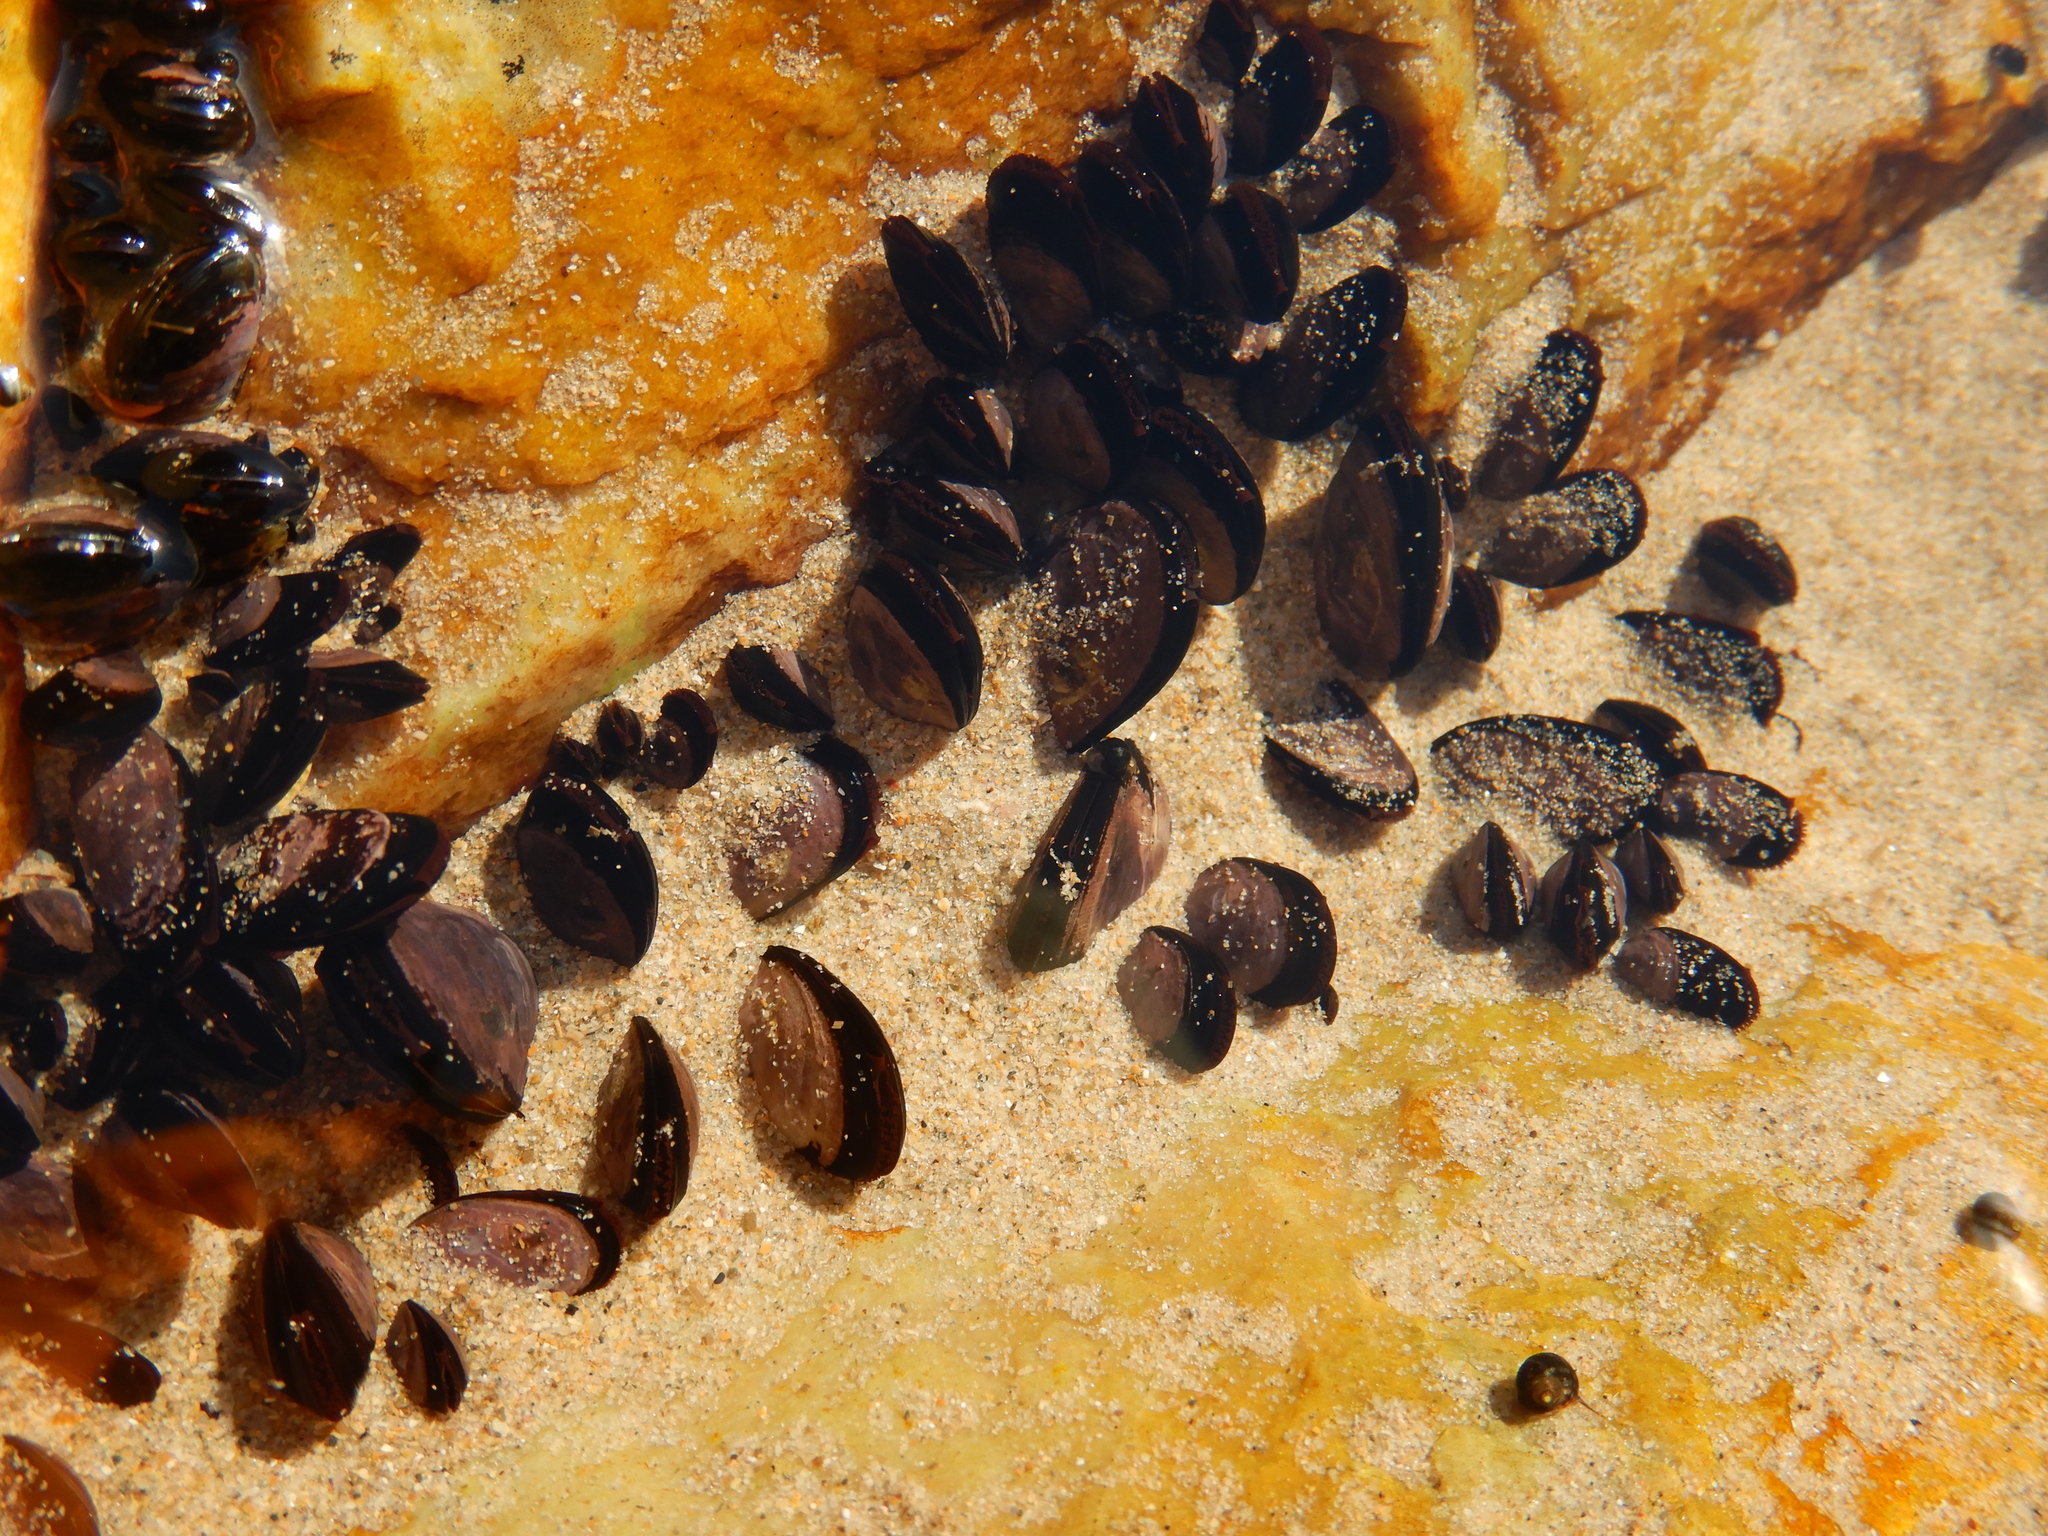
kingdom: Animalia
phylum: Mollusca
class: Bivalvia
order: Mytilida
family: Mytilidae
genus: Brachidontes
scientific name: Brachidontes rostratus
